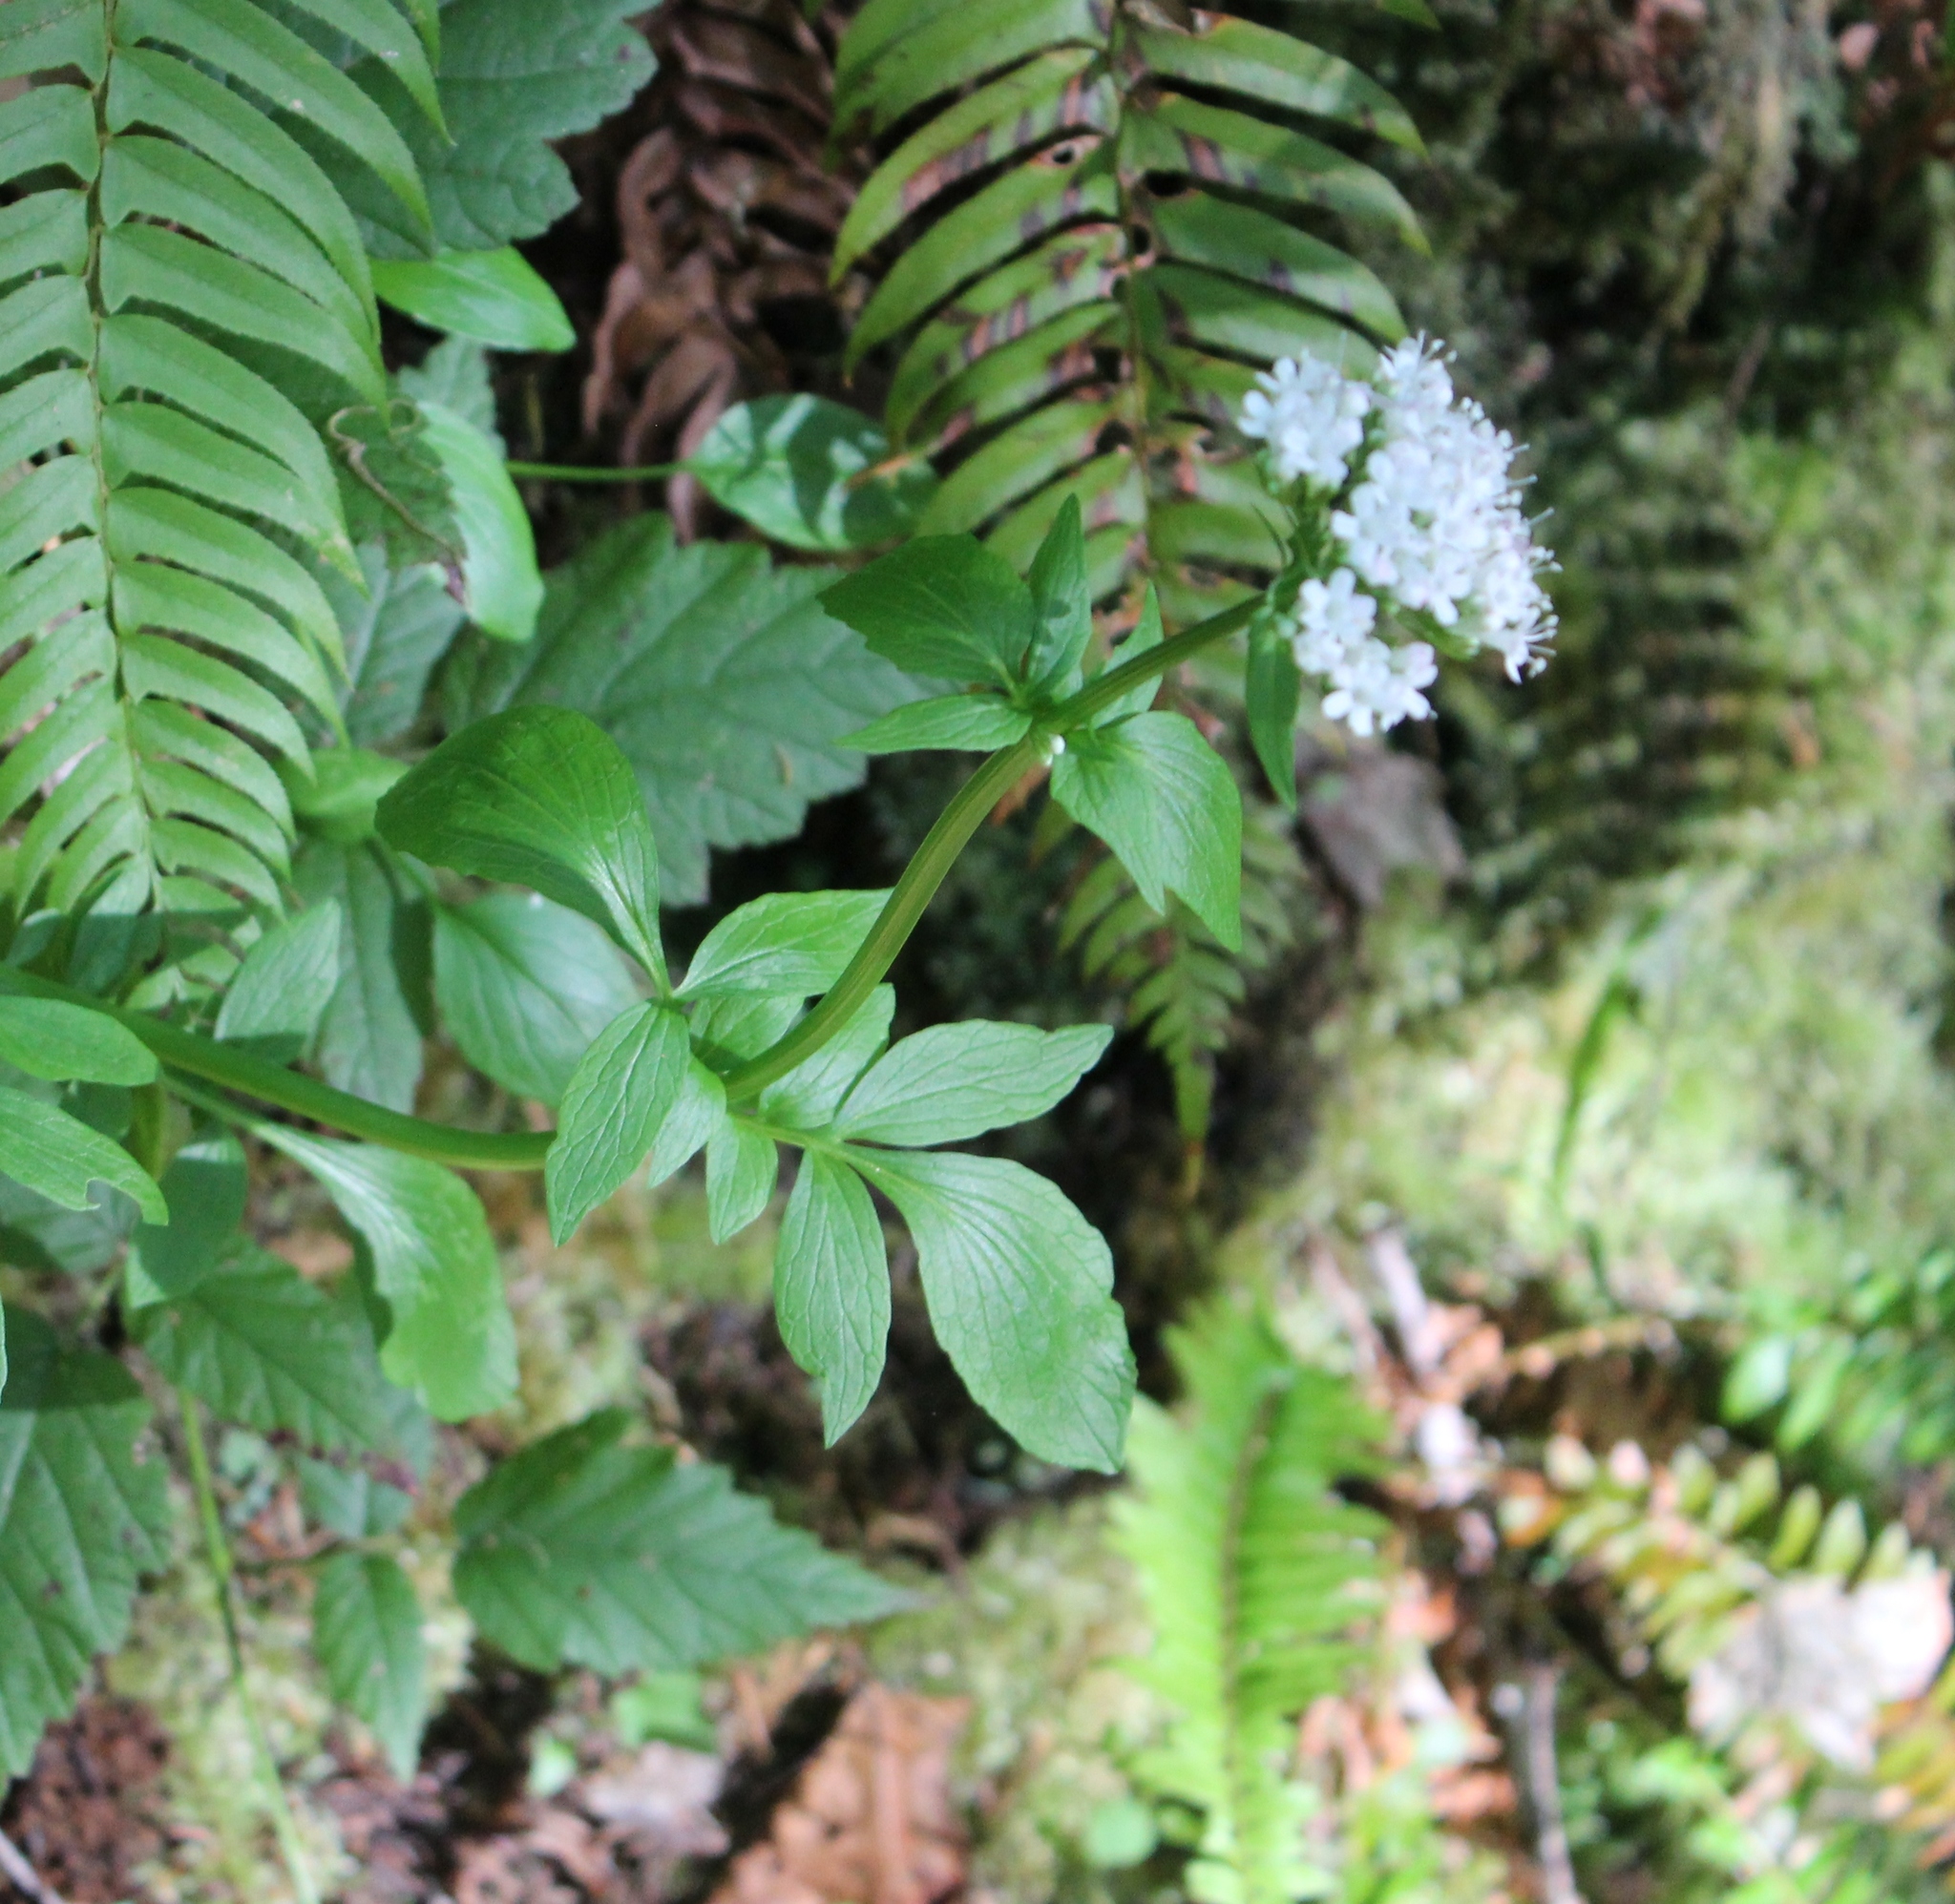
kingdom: Plantae
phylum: Tracheophyta
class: Magnoliopsida
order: Dipsacales
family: Caprifoliaceae
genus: Valeriana
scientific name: Valeriana scouleri
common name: Scouler's valerian
